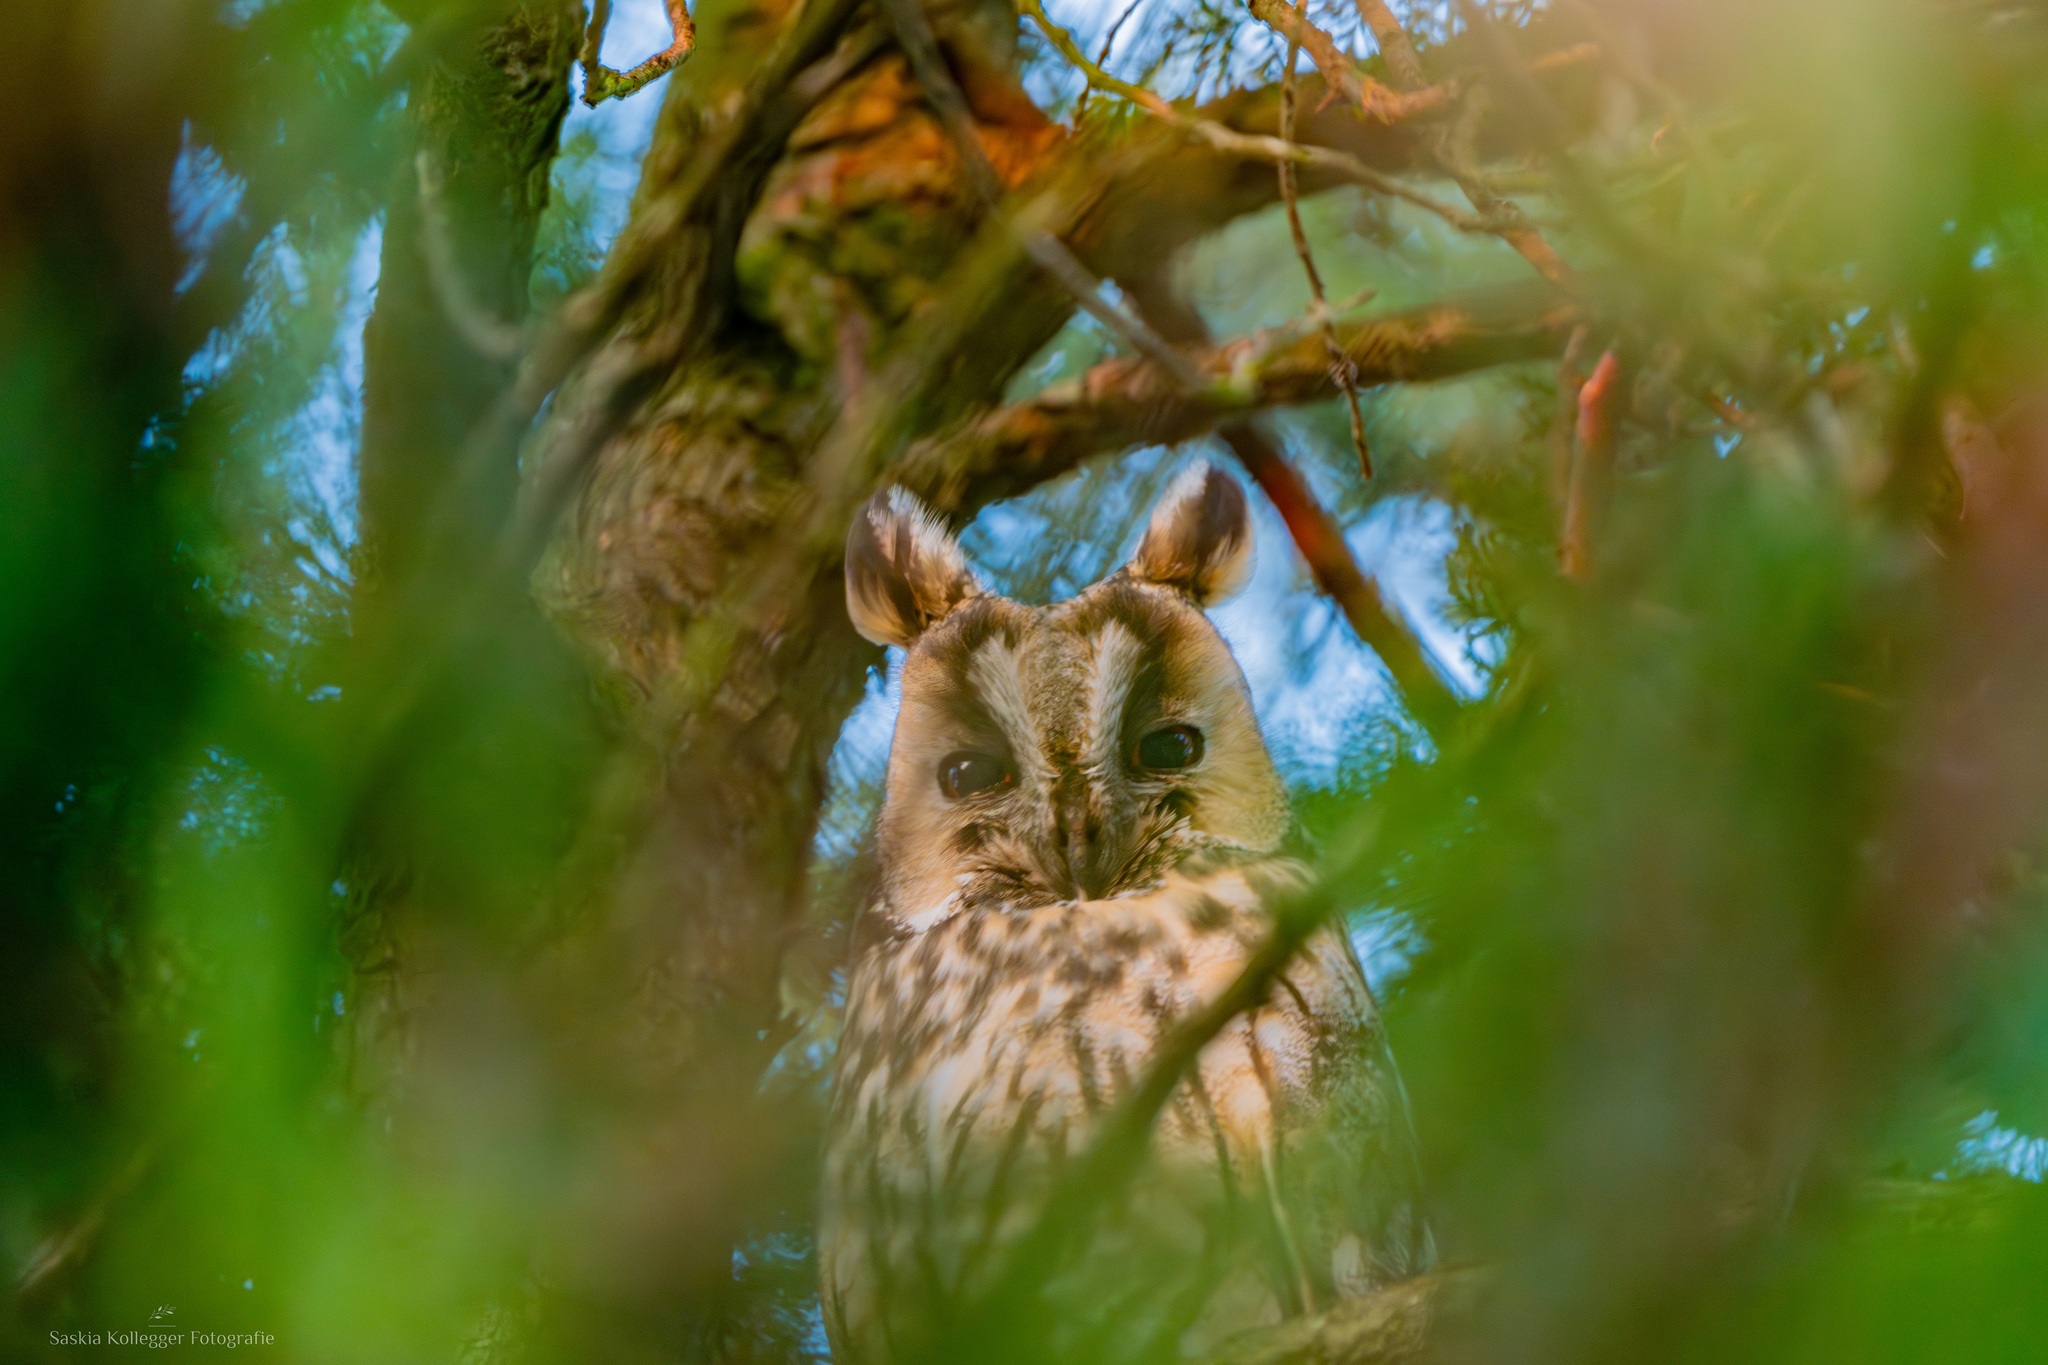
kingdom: Animalia
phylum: Chordata
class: Aves
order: Strigiformes
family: Strigidae
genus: Asio
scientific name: Asio otus
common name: Long-eared owl
